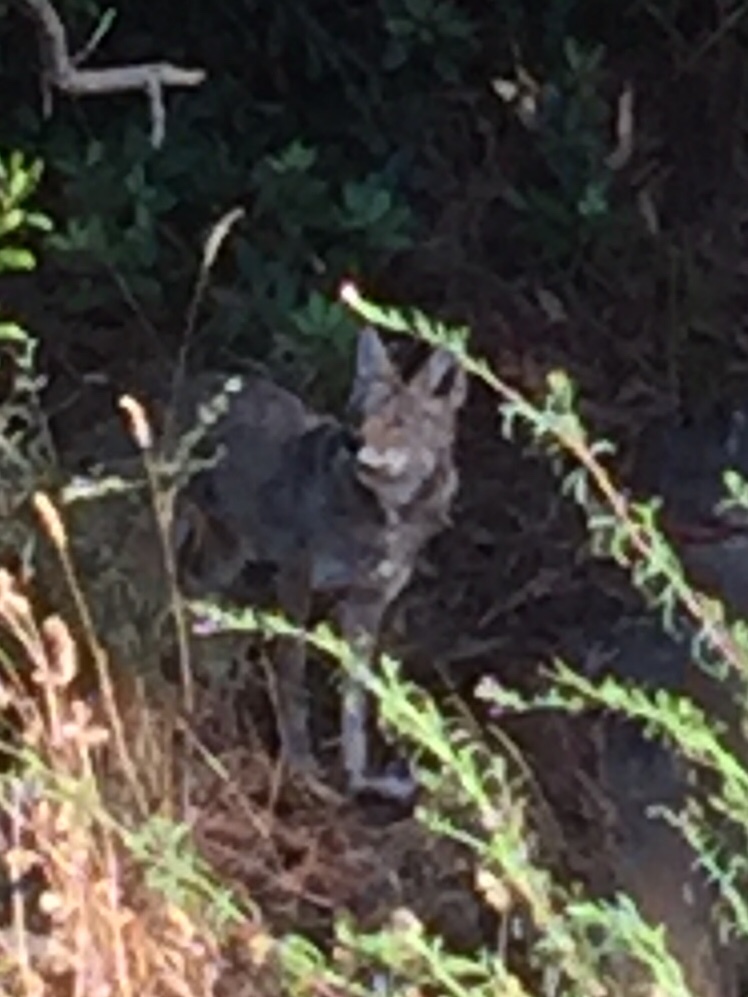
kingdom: Animalia
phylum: Chordata
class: Mammalia
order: Carnivora
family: Canidae
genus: Canis
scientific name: Canis latrans
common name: Coyote
